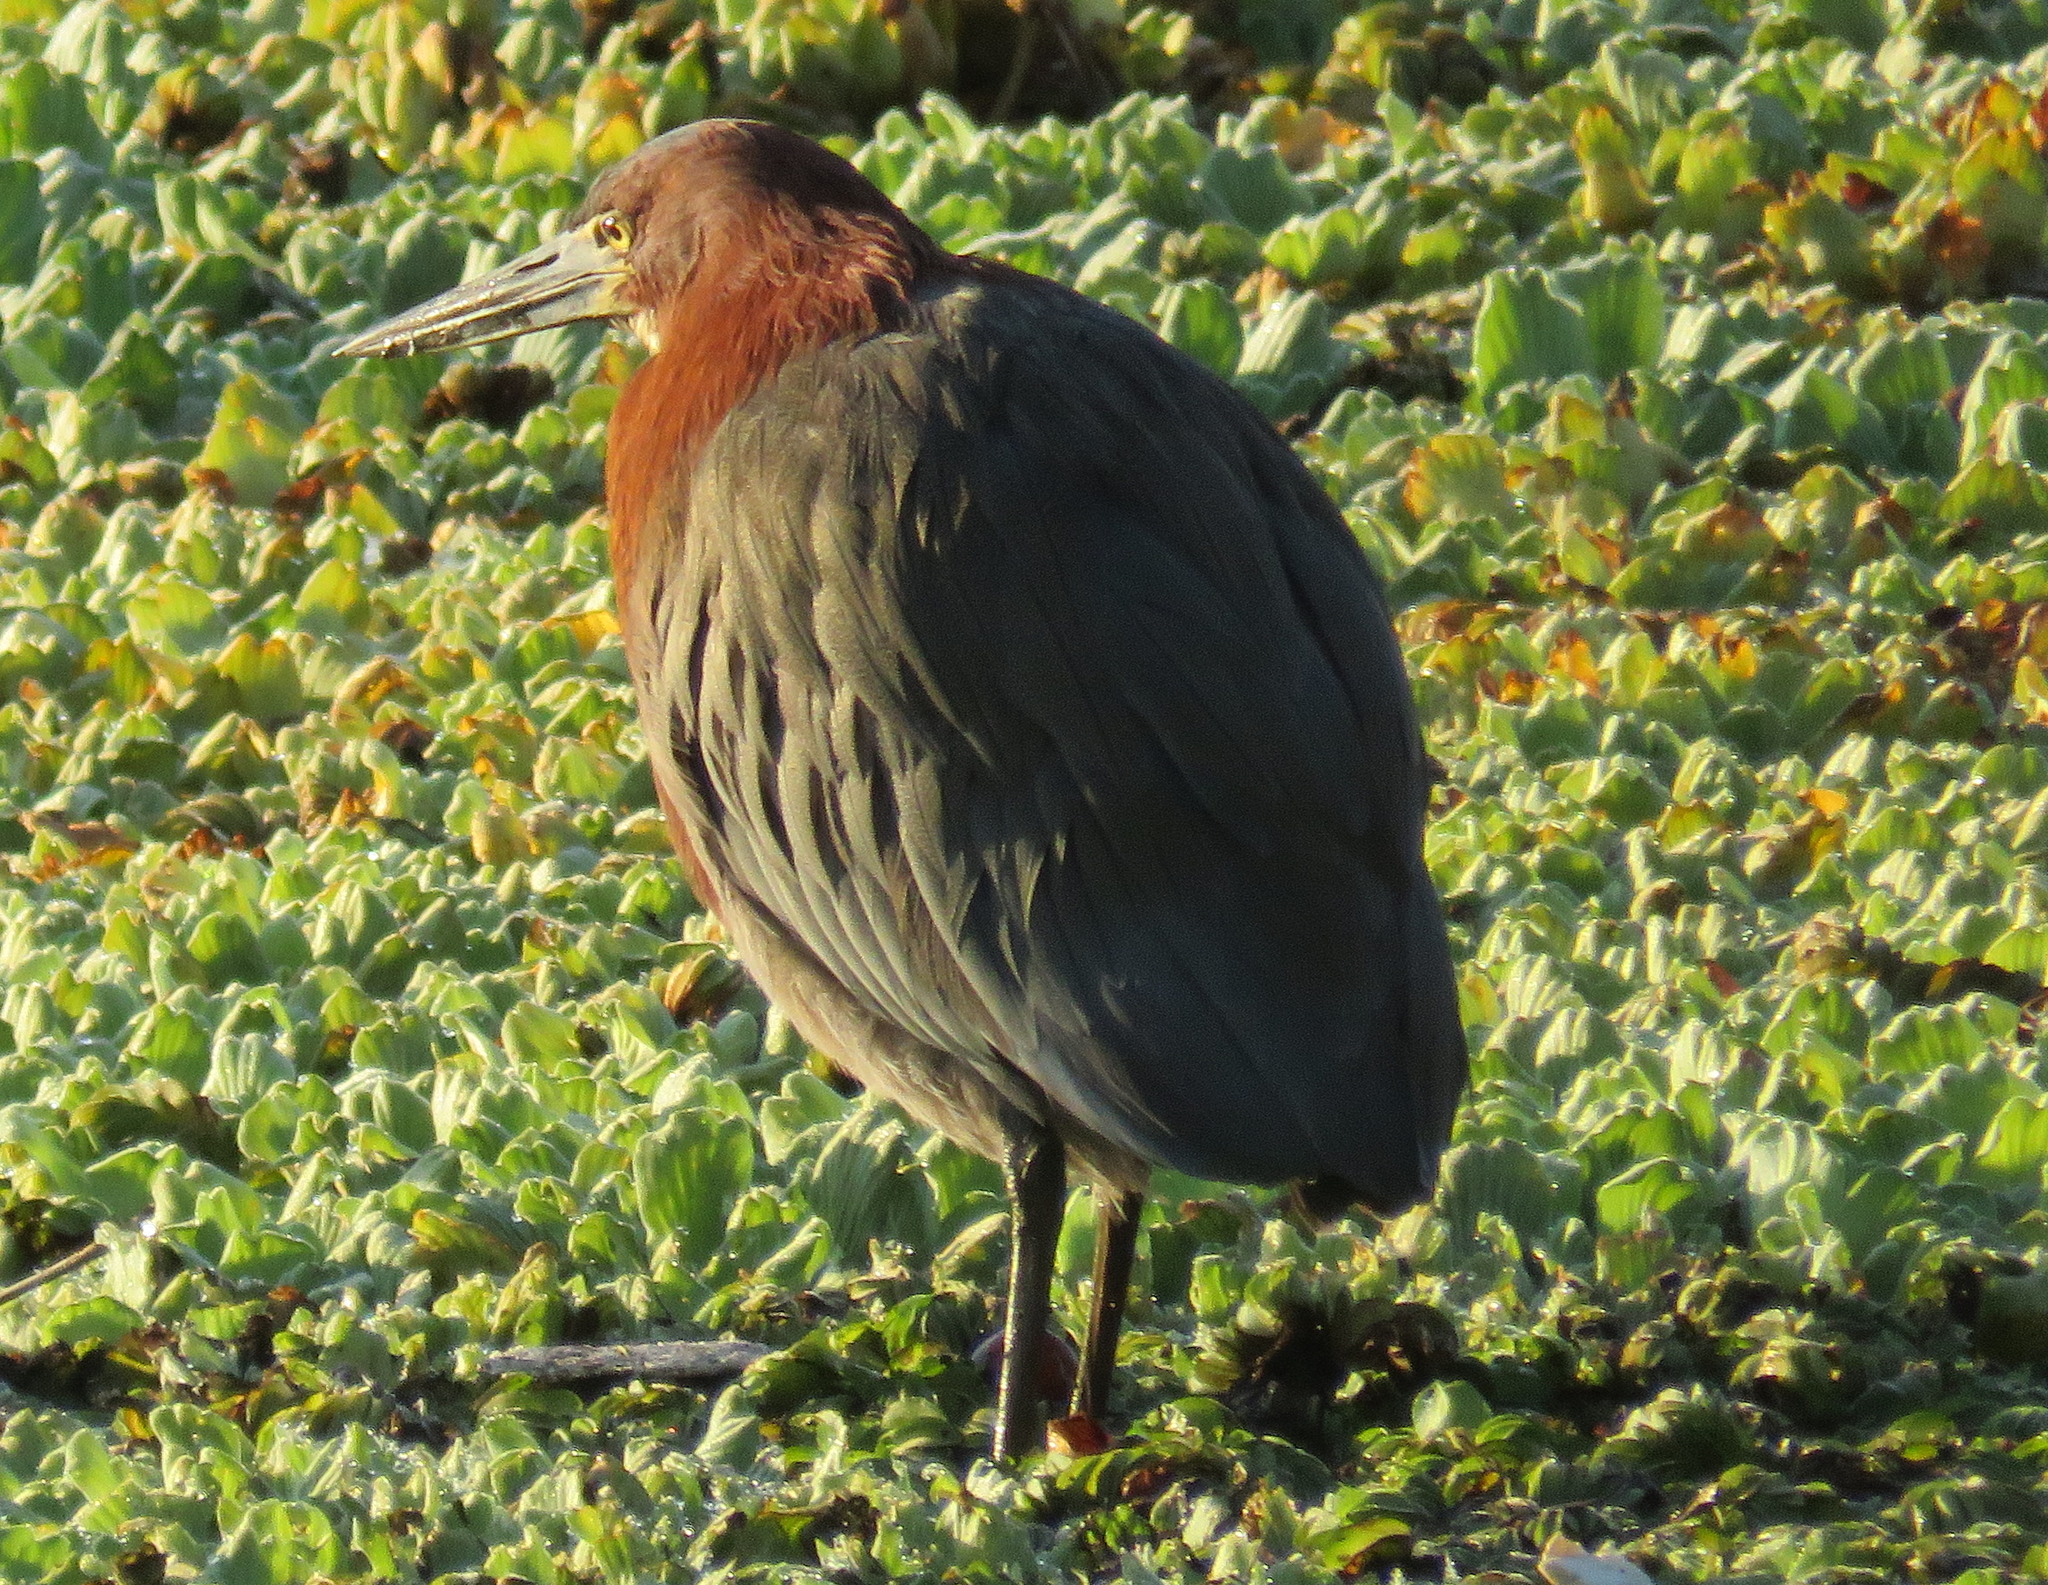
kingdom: Animalia
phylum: Chordata
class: Aves
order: Pelecaniformes
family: Ardeidae
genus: Tigrisoma
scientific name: Tigrisoma lineatum
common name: Rufescent tiger-heron
